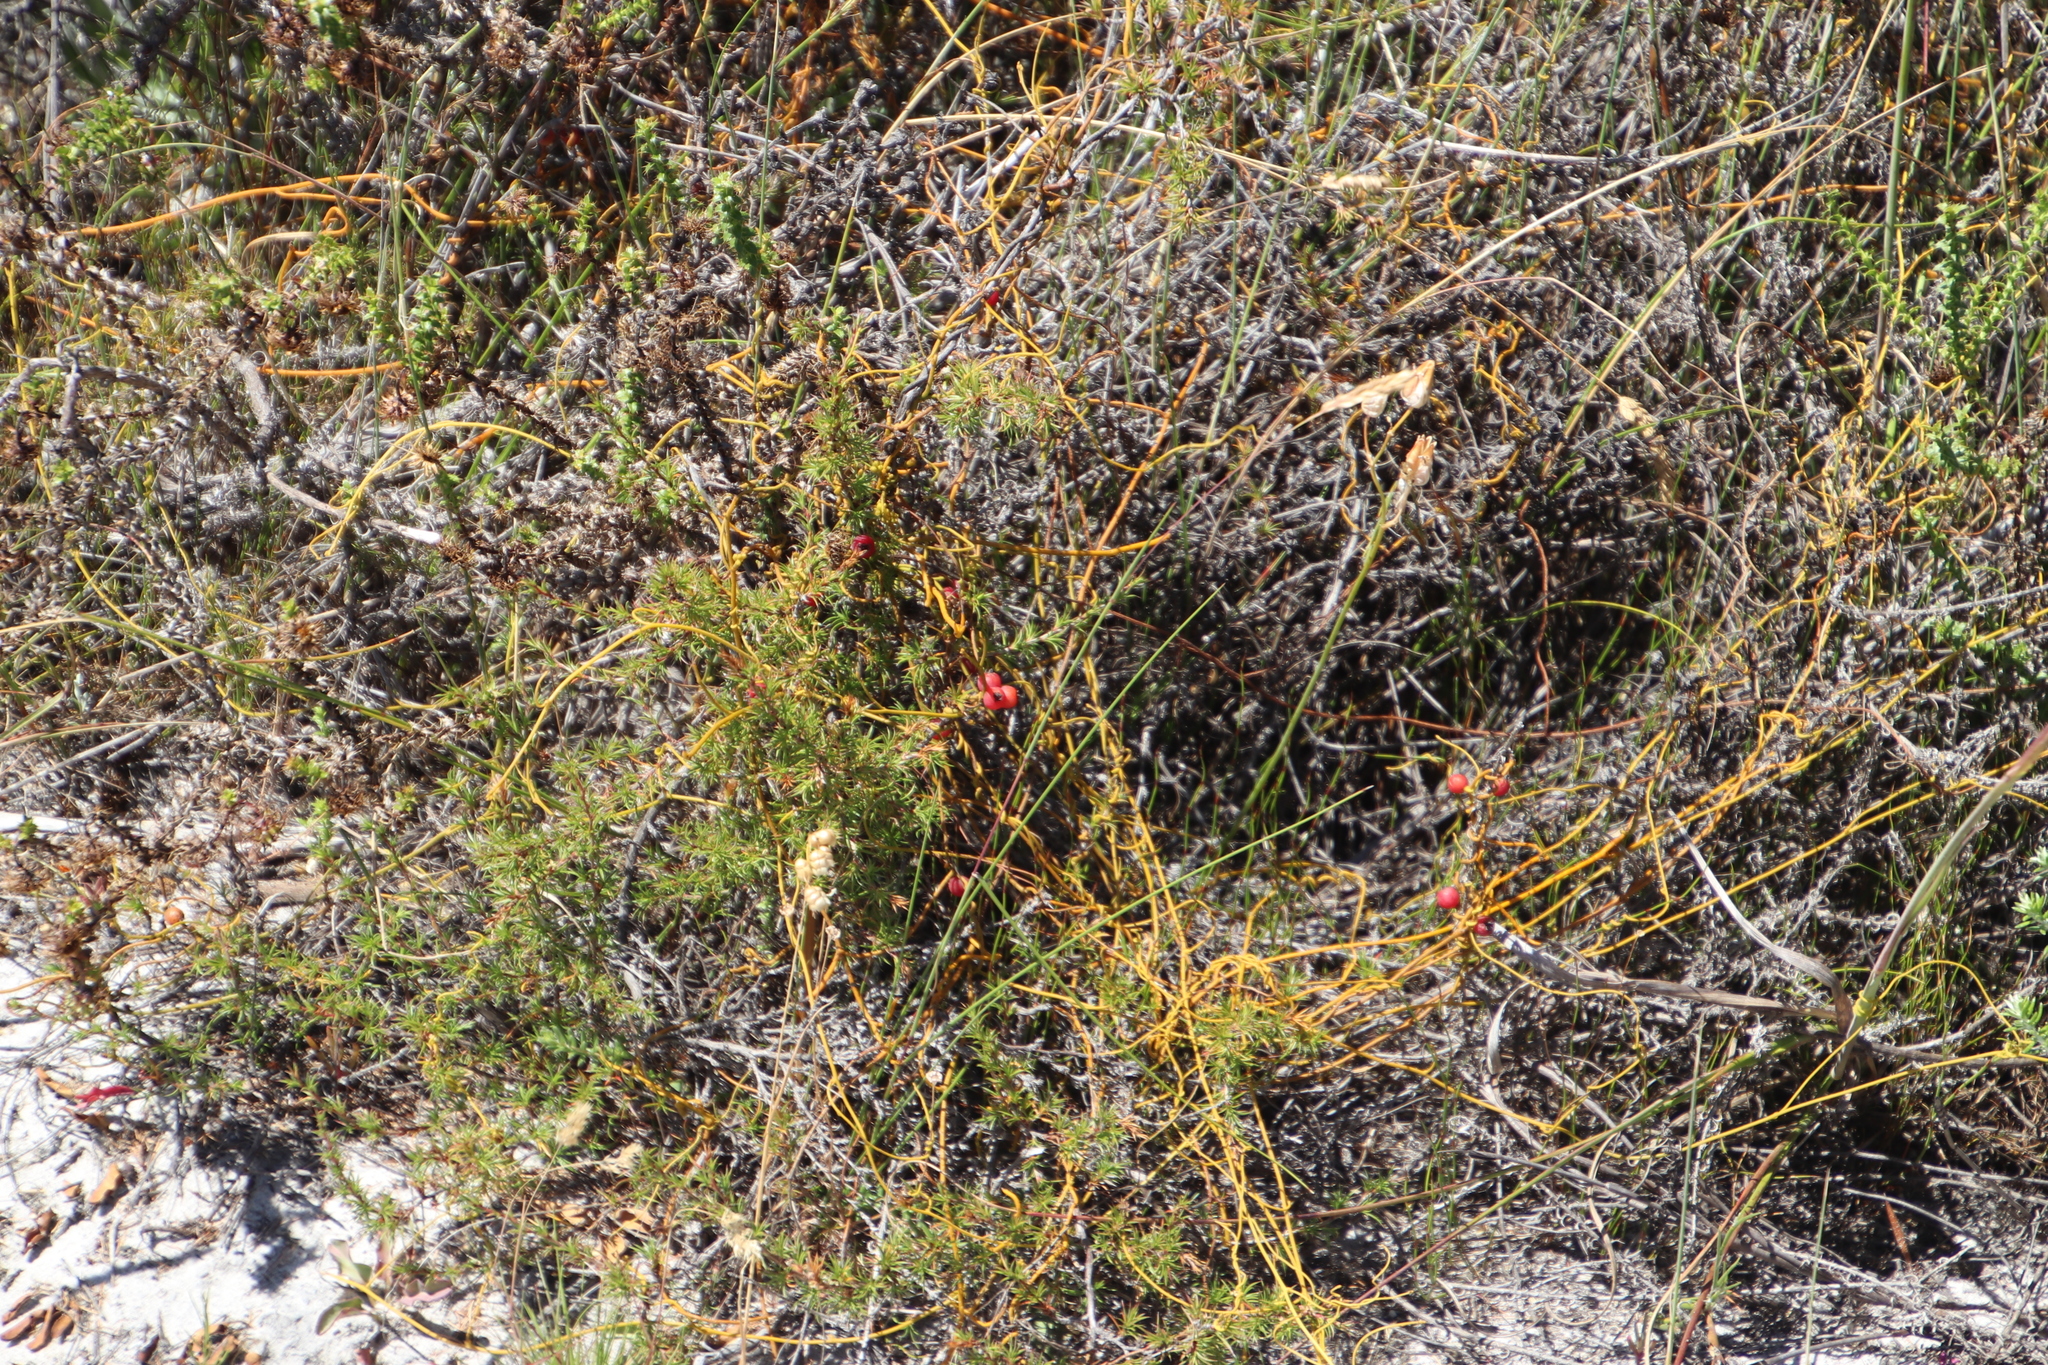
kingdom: Plantae
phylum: Tracheophyta
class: Magnoliopsida
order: Laurales
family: Lauraceae
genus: Cassytha
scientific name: Cassytha ciliolata
